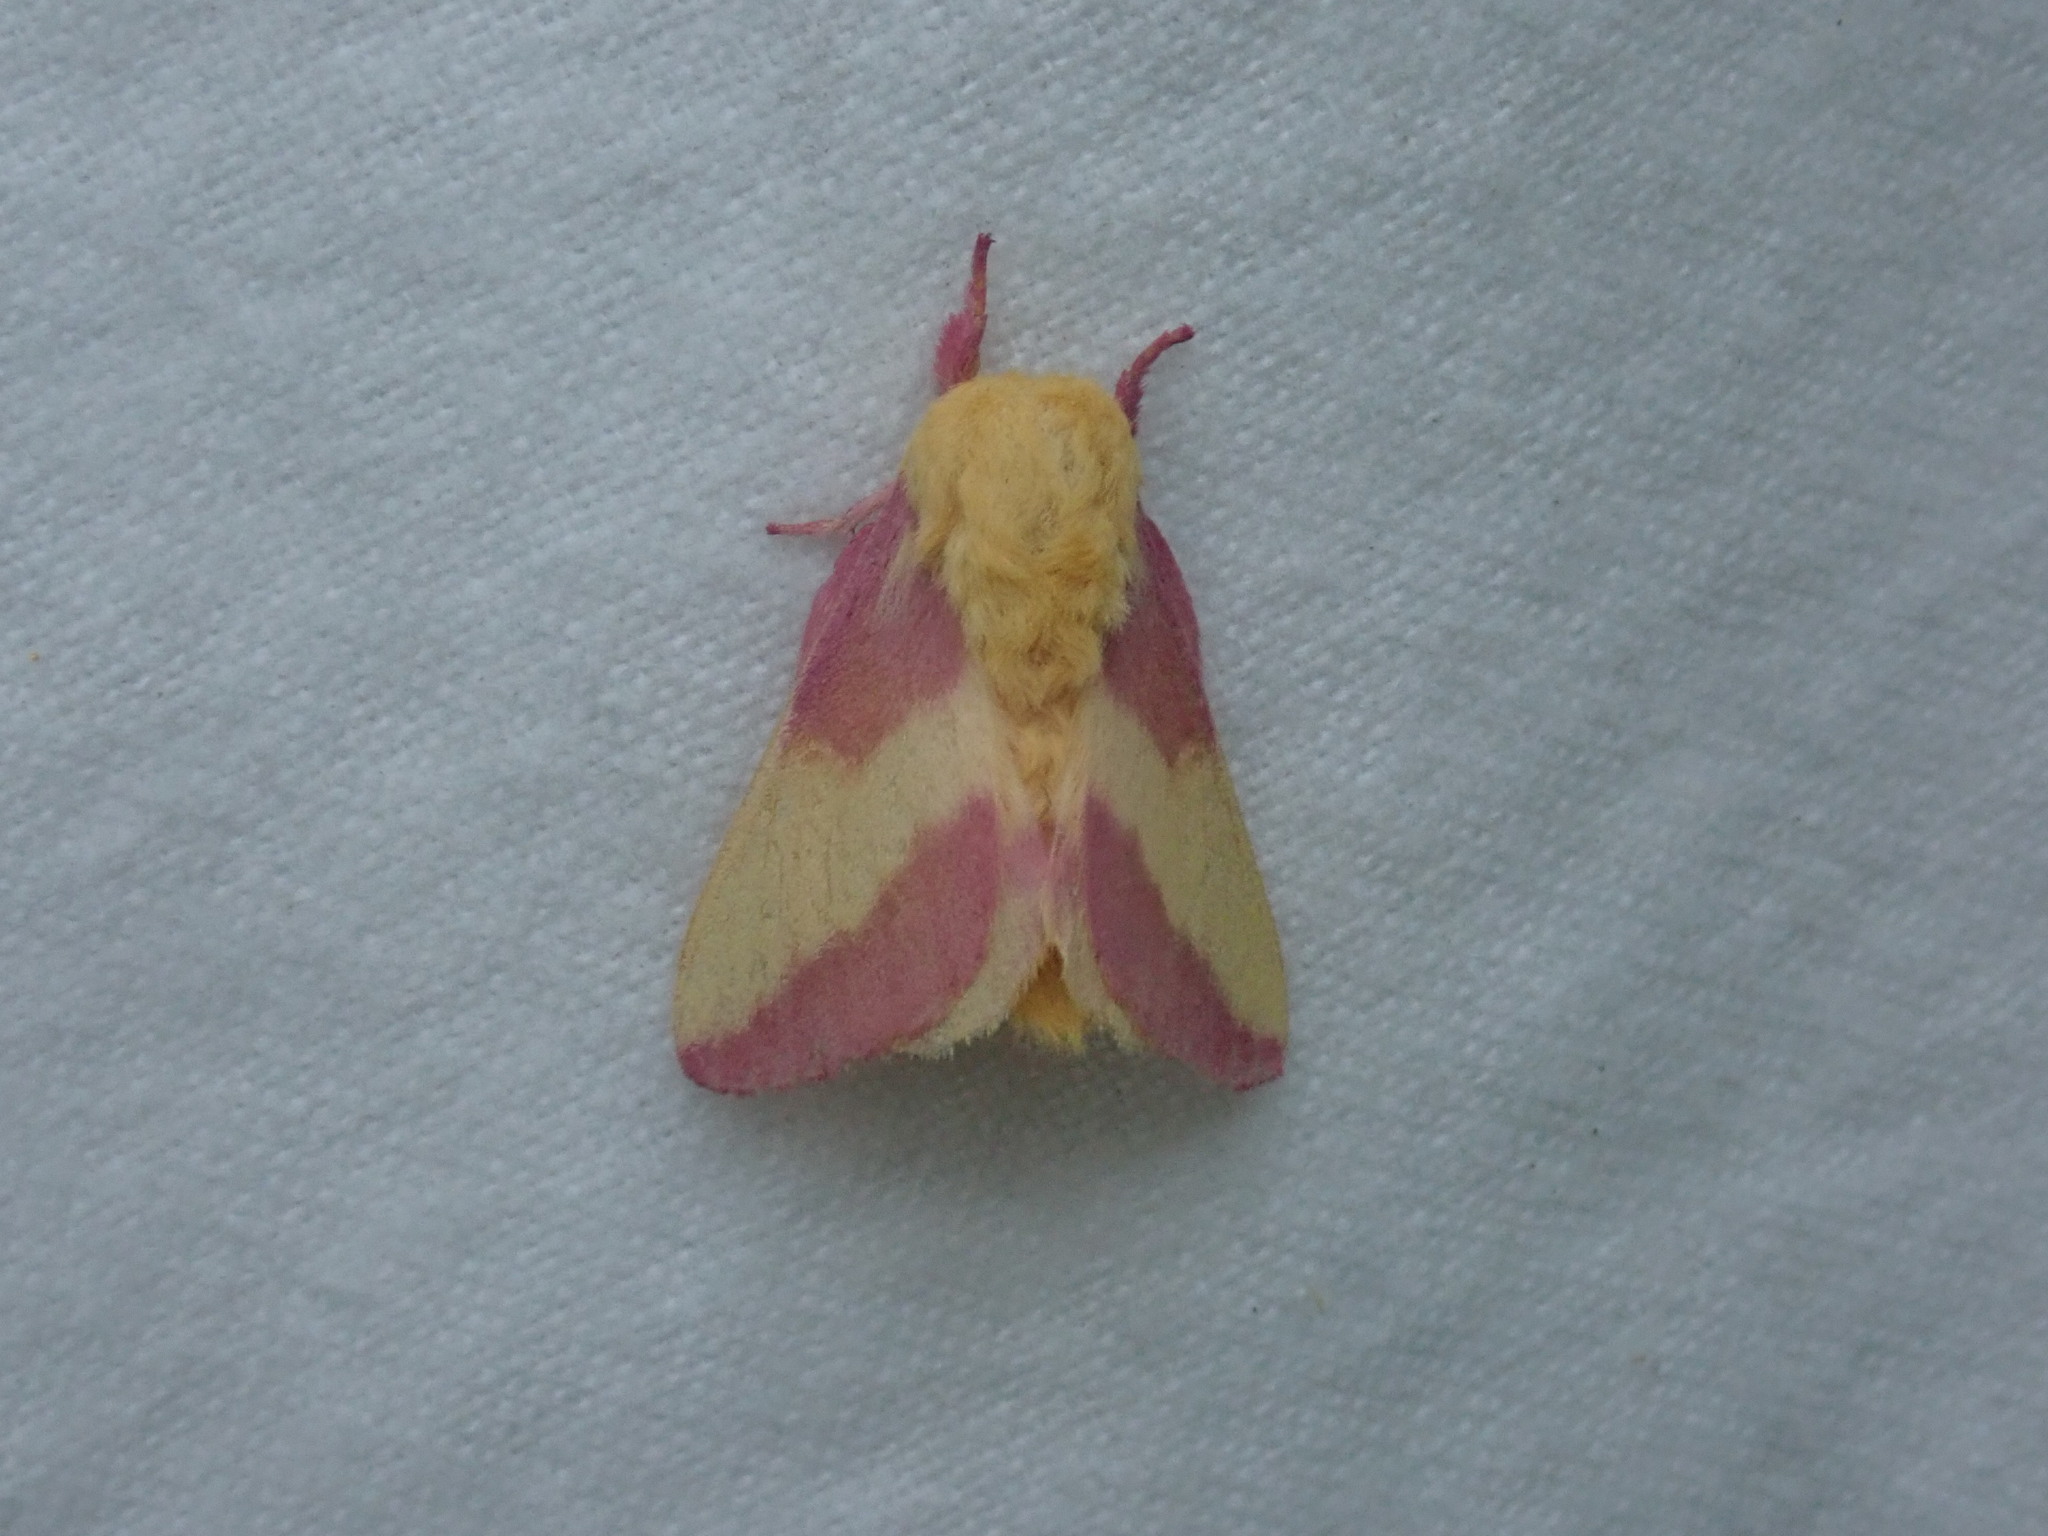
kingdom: Animalia
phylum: Arthropoda
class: Insecta
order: Lepidoptera
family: Saturniidae
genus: Dryocampa
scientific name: Dryocampa rubicunda
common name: Rosy maple moth
